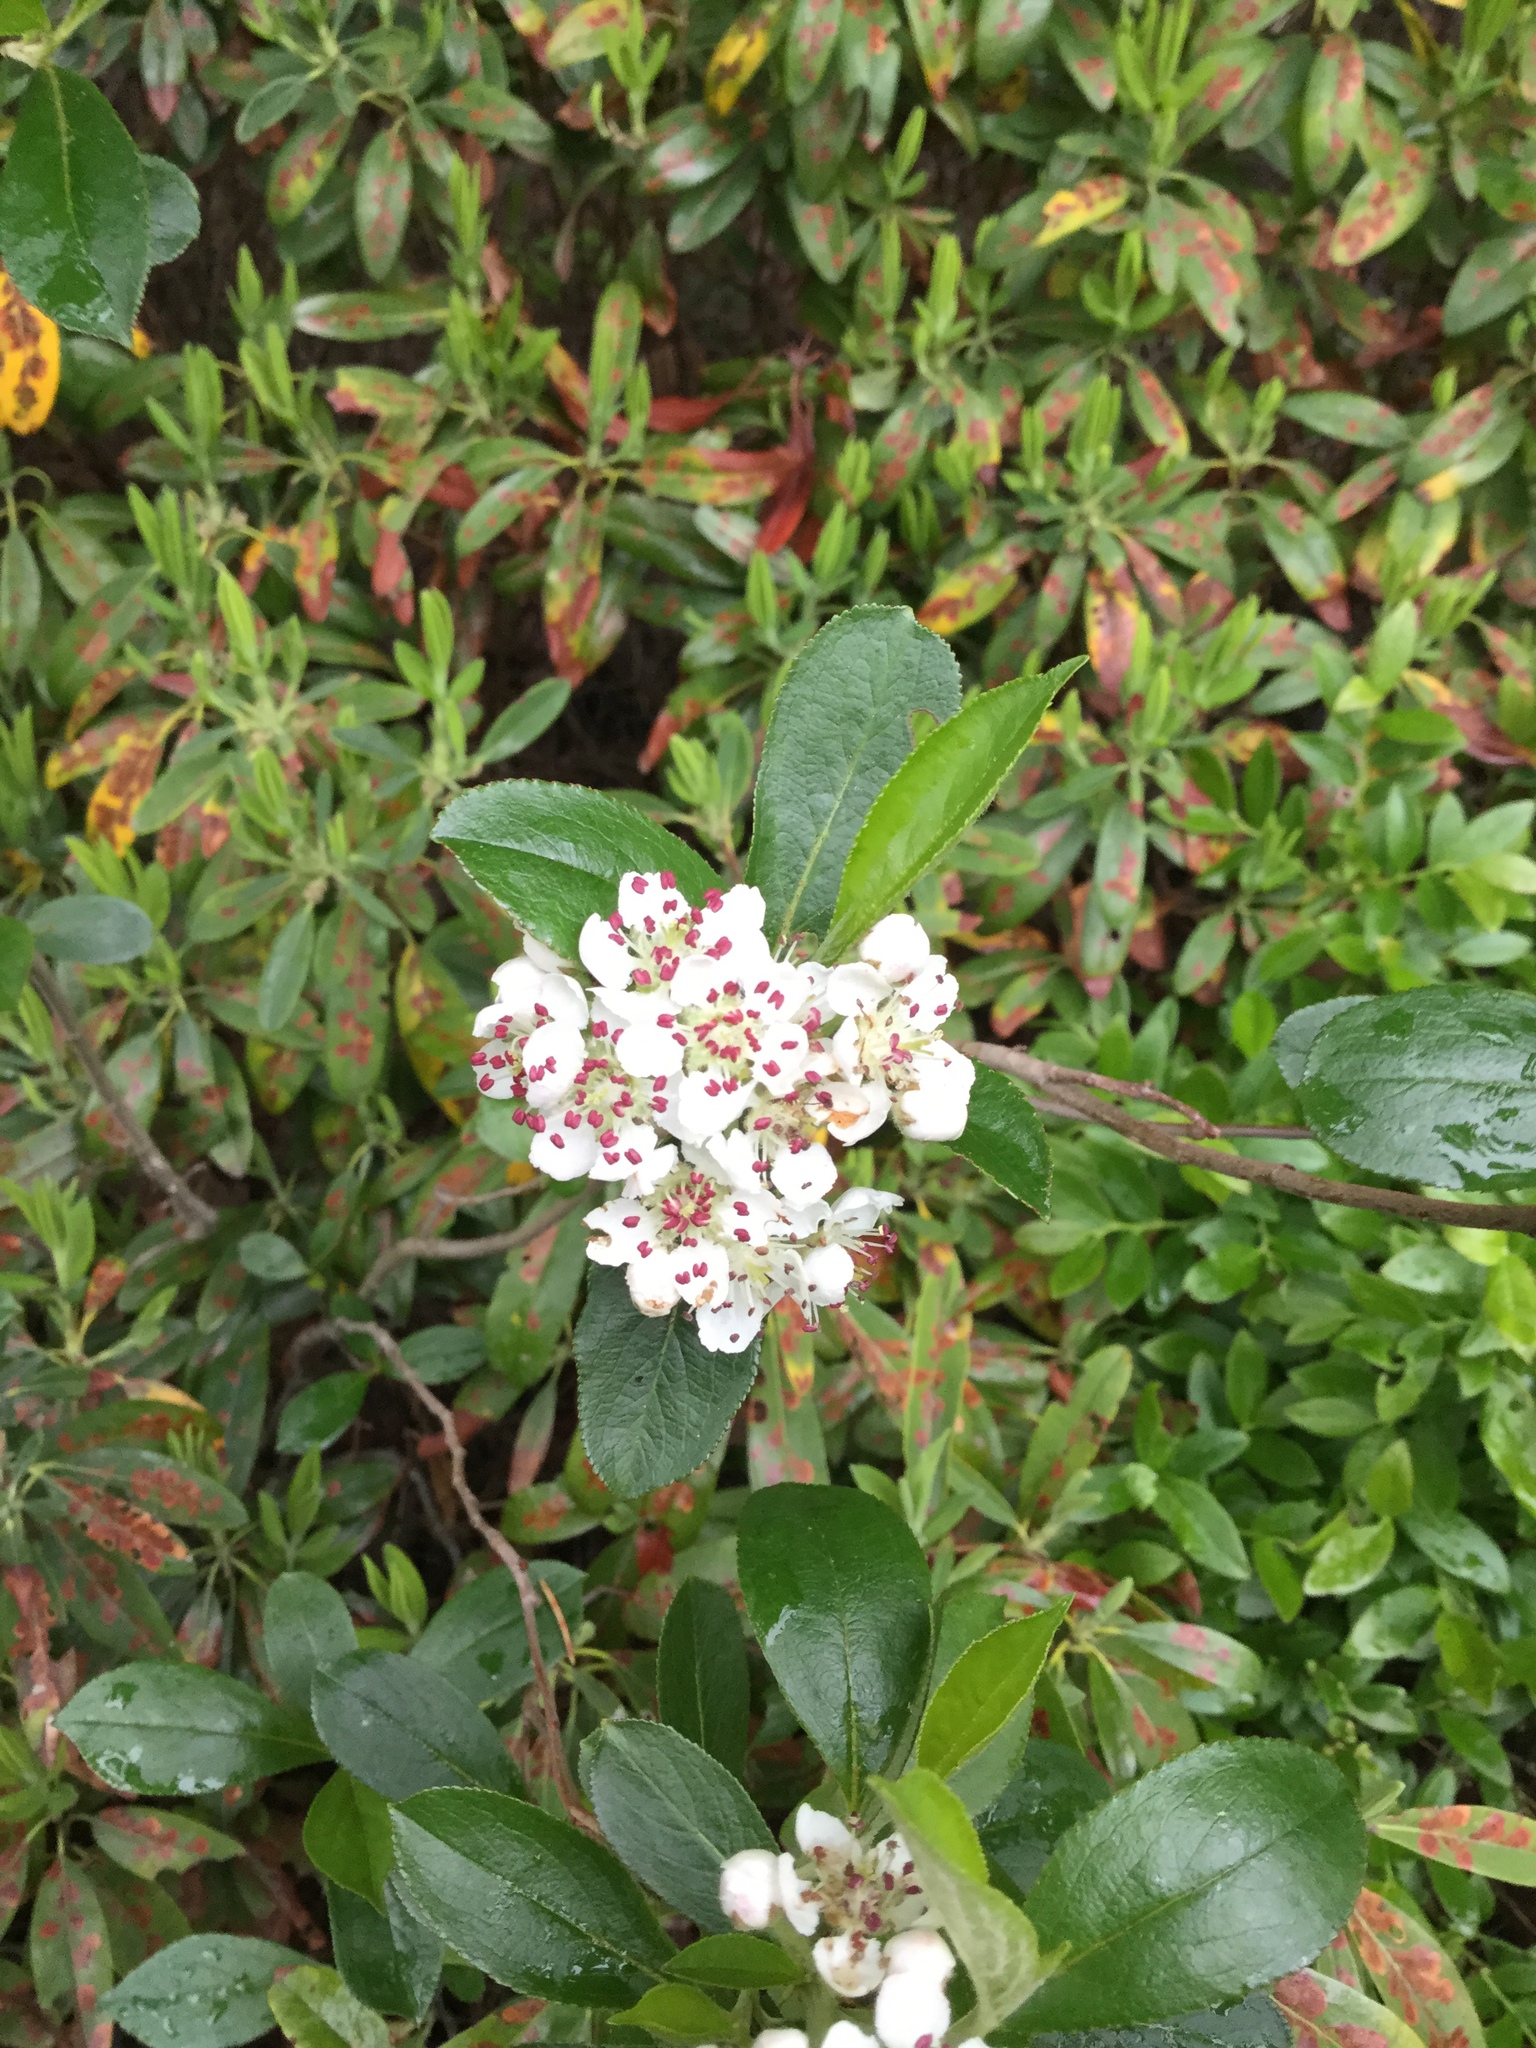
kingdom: Plantae
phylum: Tracheophyta
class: Magnoliopsida
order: Rosales
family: Rosaceae
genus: Aronia
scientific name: Aronia melanocarpa
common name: Black chokeberry
